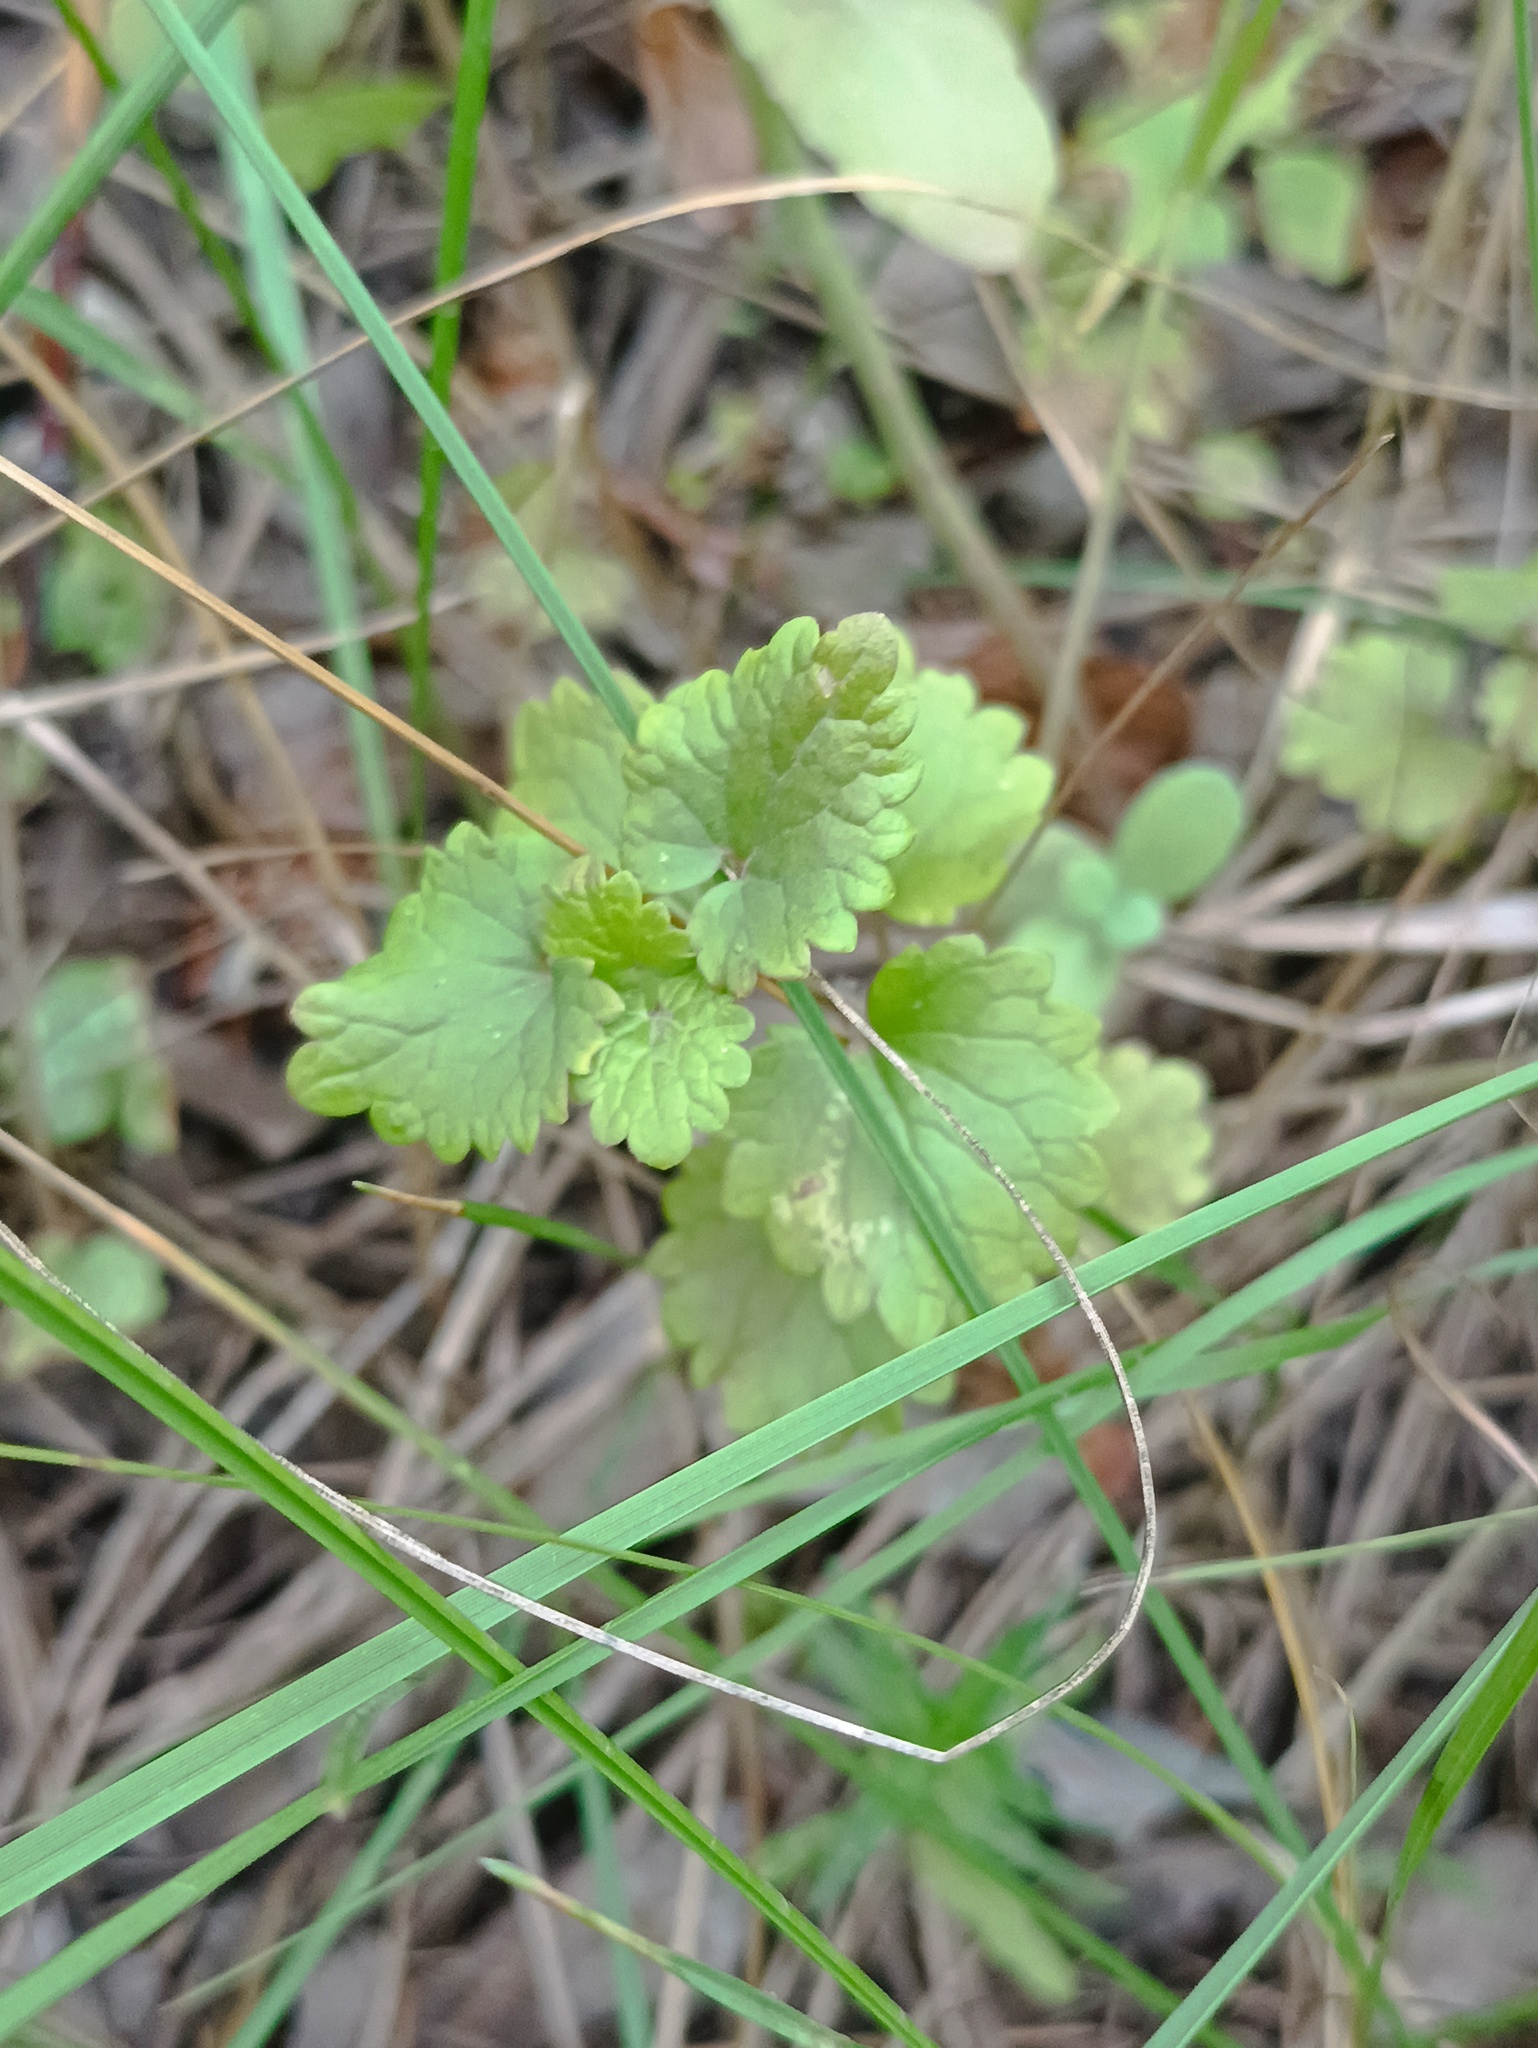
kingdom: Plantae
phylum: Tracheophyta
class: Magnoliopsida
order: Lamiales
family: Lamiaceae
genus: Glechoma
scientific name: Glechoma hederacea
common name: Ground ivy
